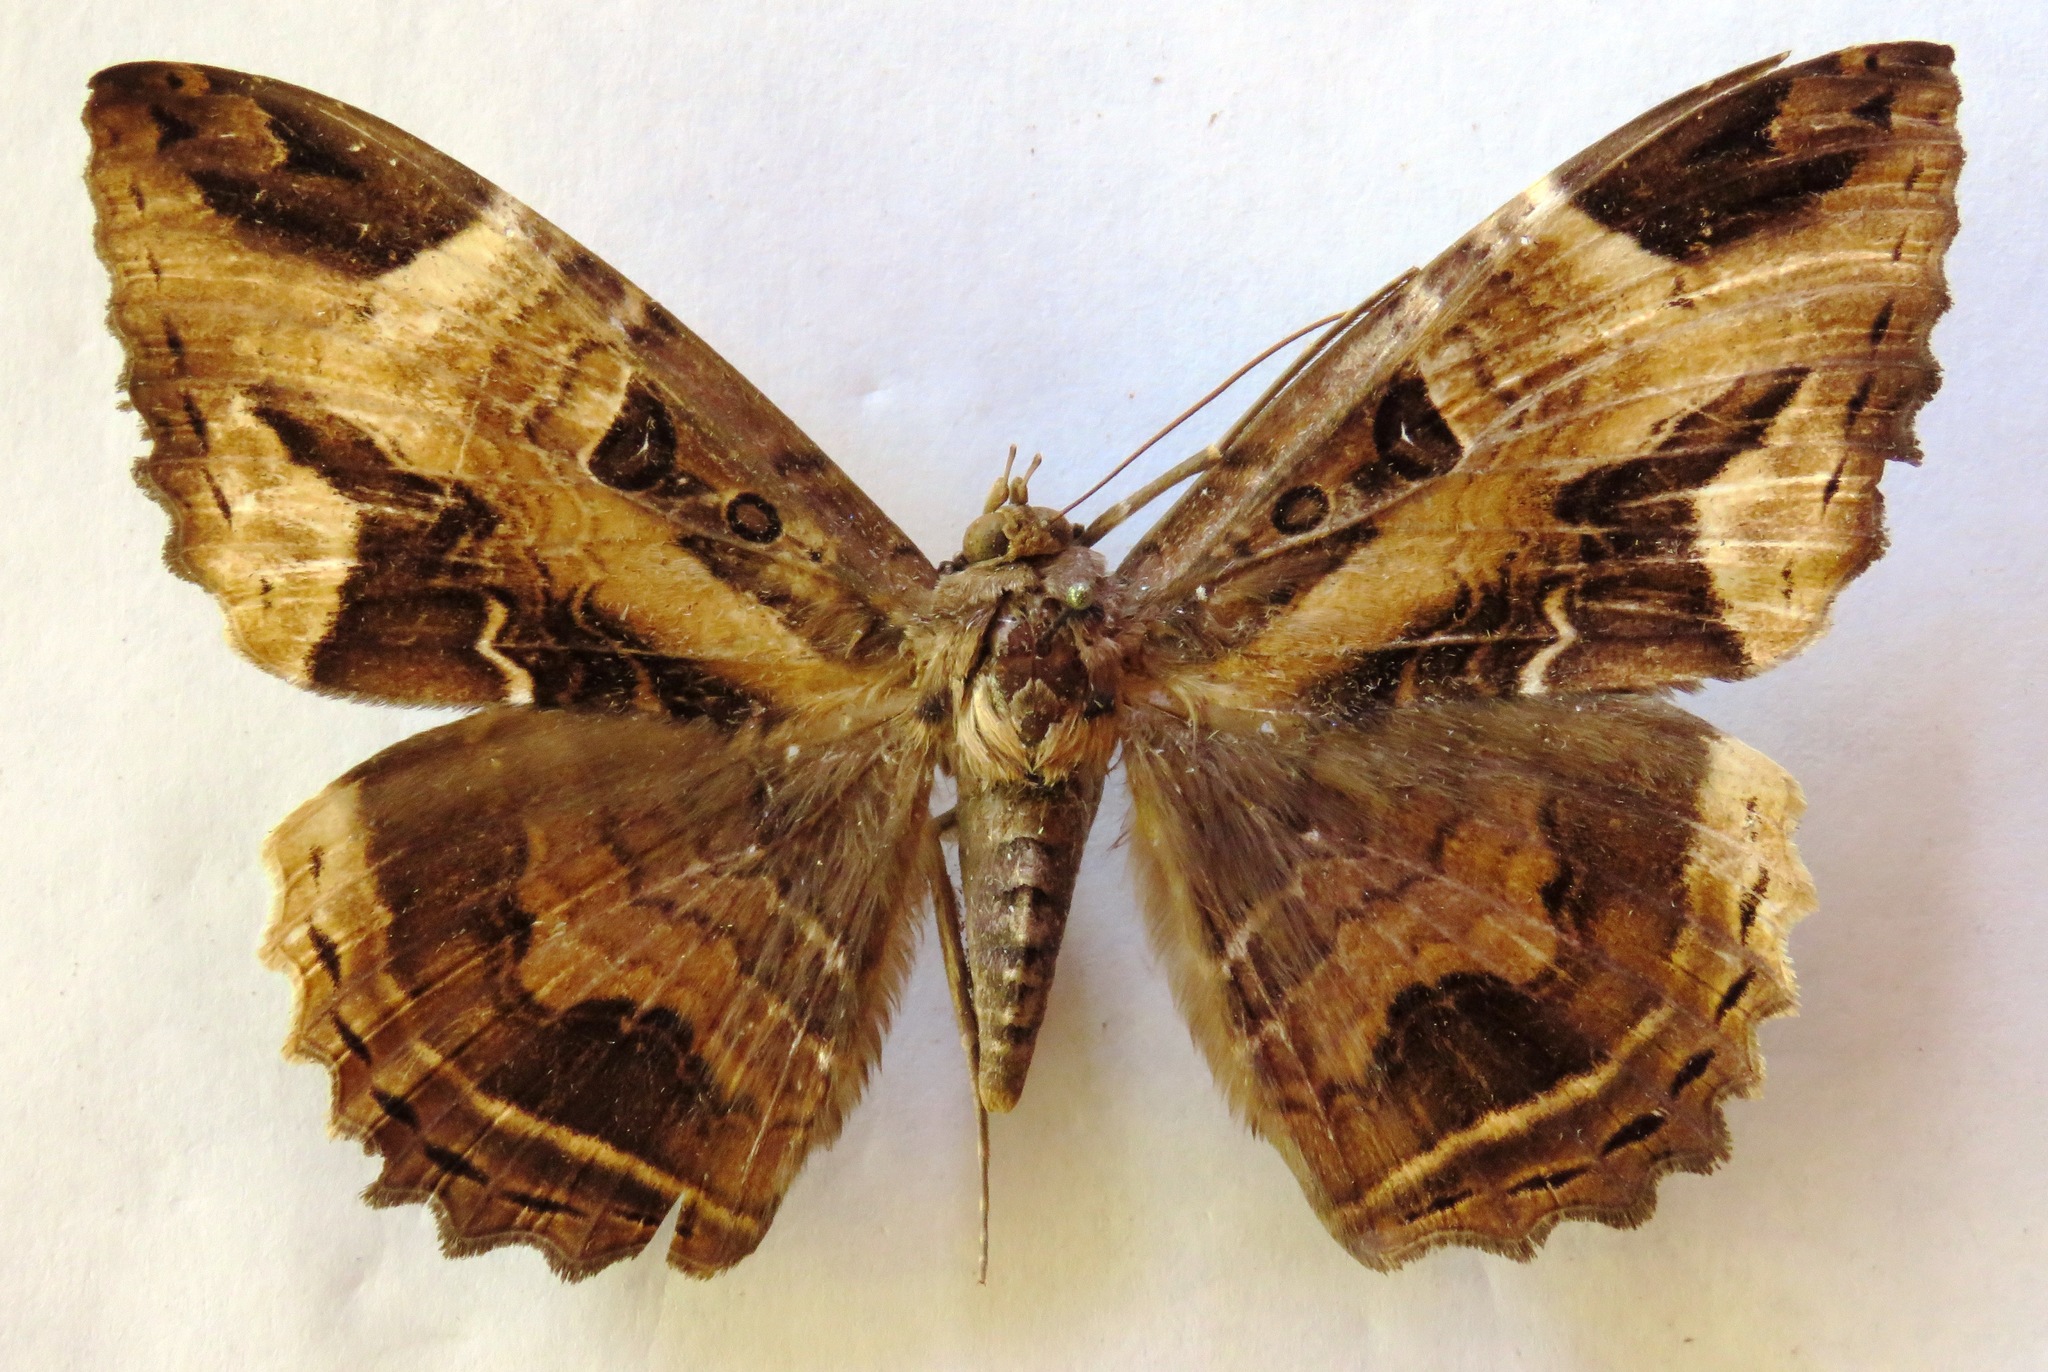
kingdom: Animalia
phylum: Arthropoda
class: Insecta
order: Lepidoptera
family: Erebidae
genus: Feigeria
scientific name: Feigeria herilia
